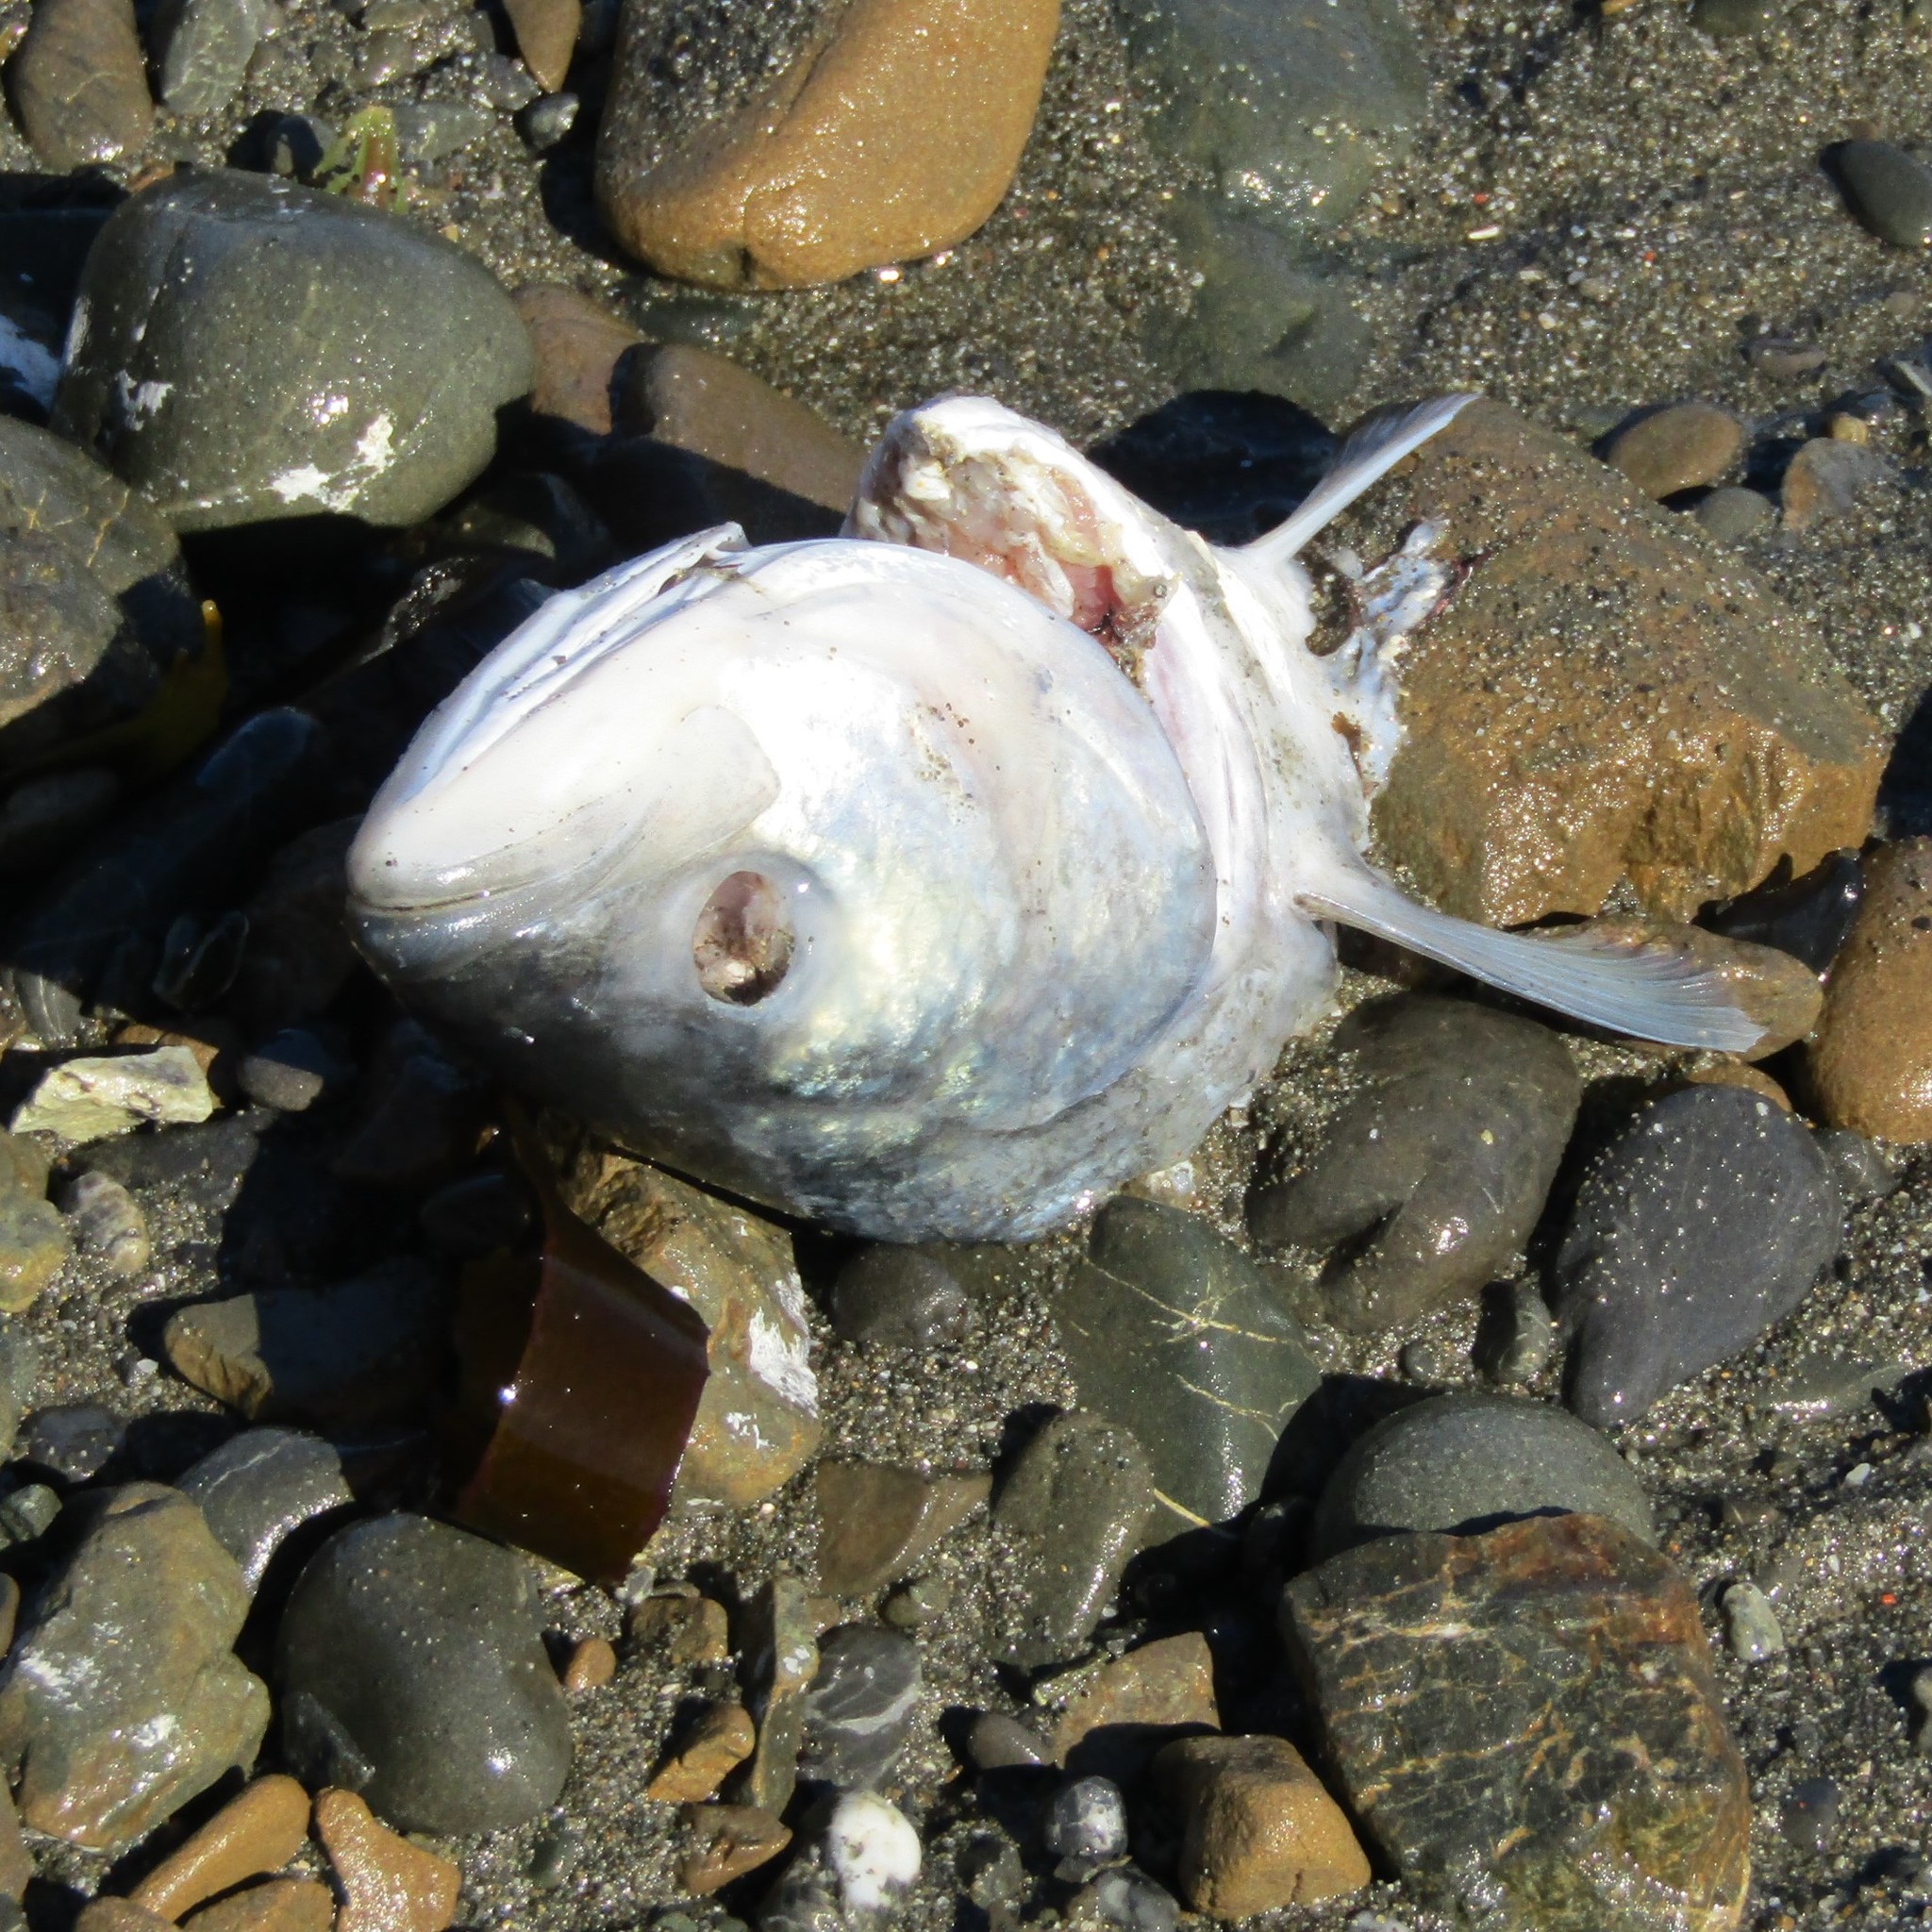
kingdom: Animalia
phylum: Chordata
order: Perciformes
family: Arripidae
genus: Arripis
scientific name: Arripis trutta
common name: Kahawai
